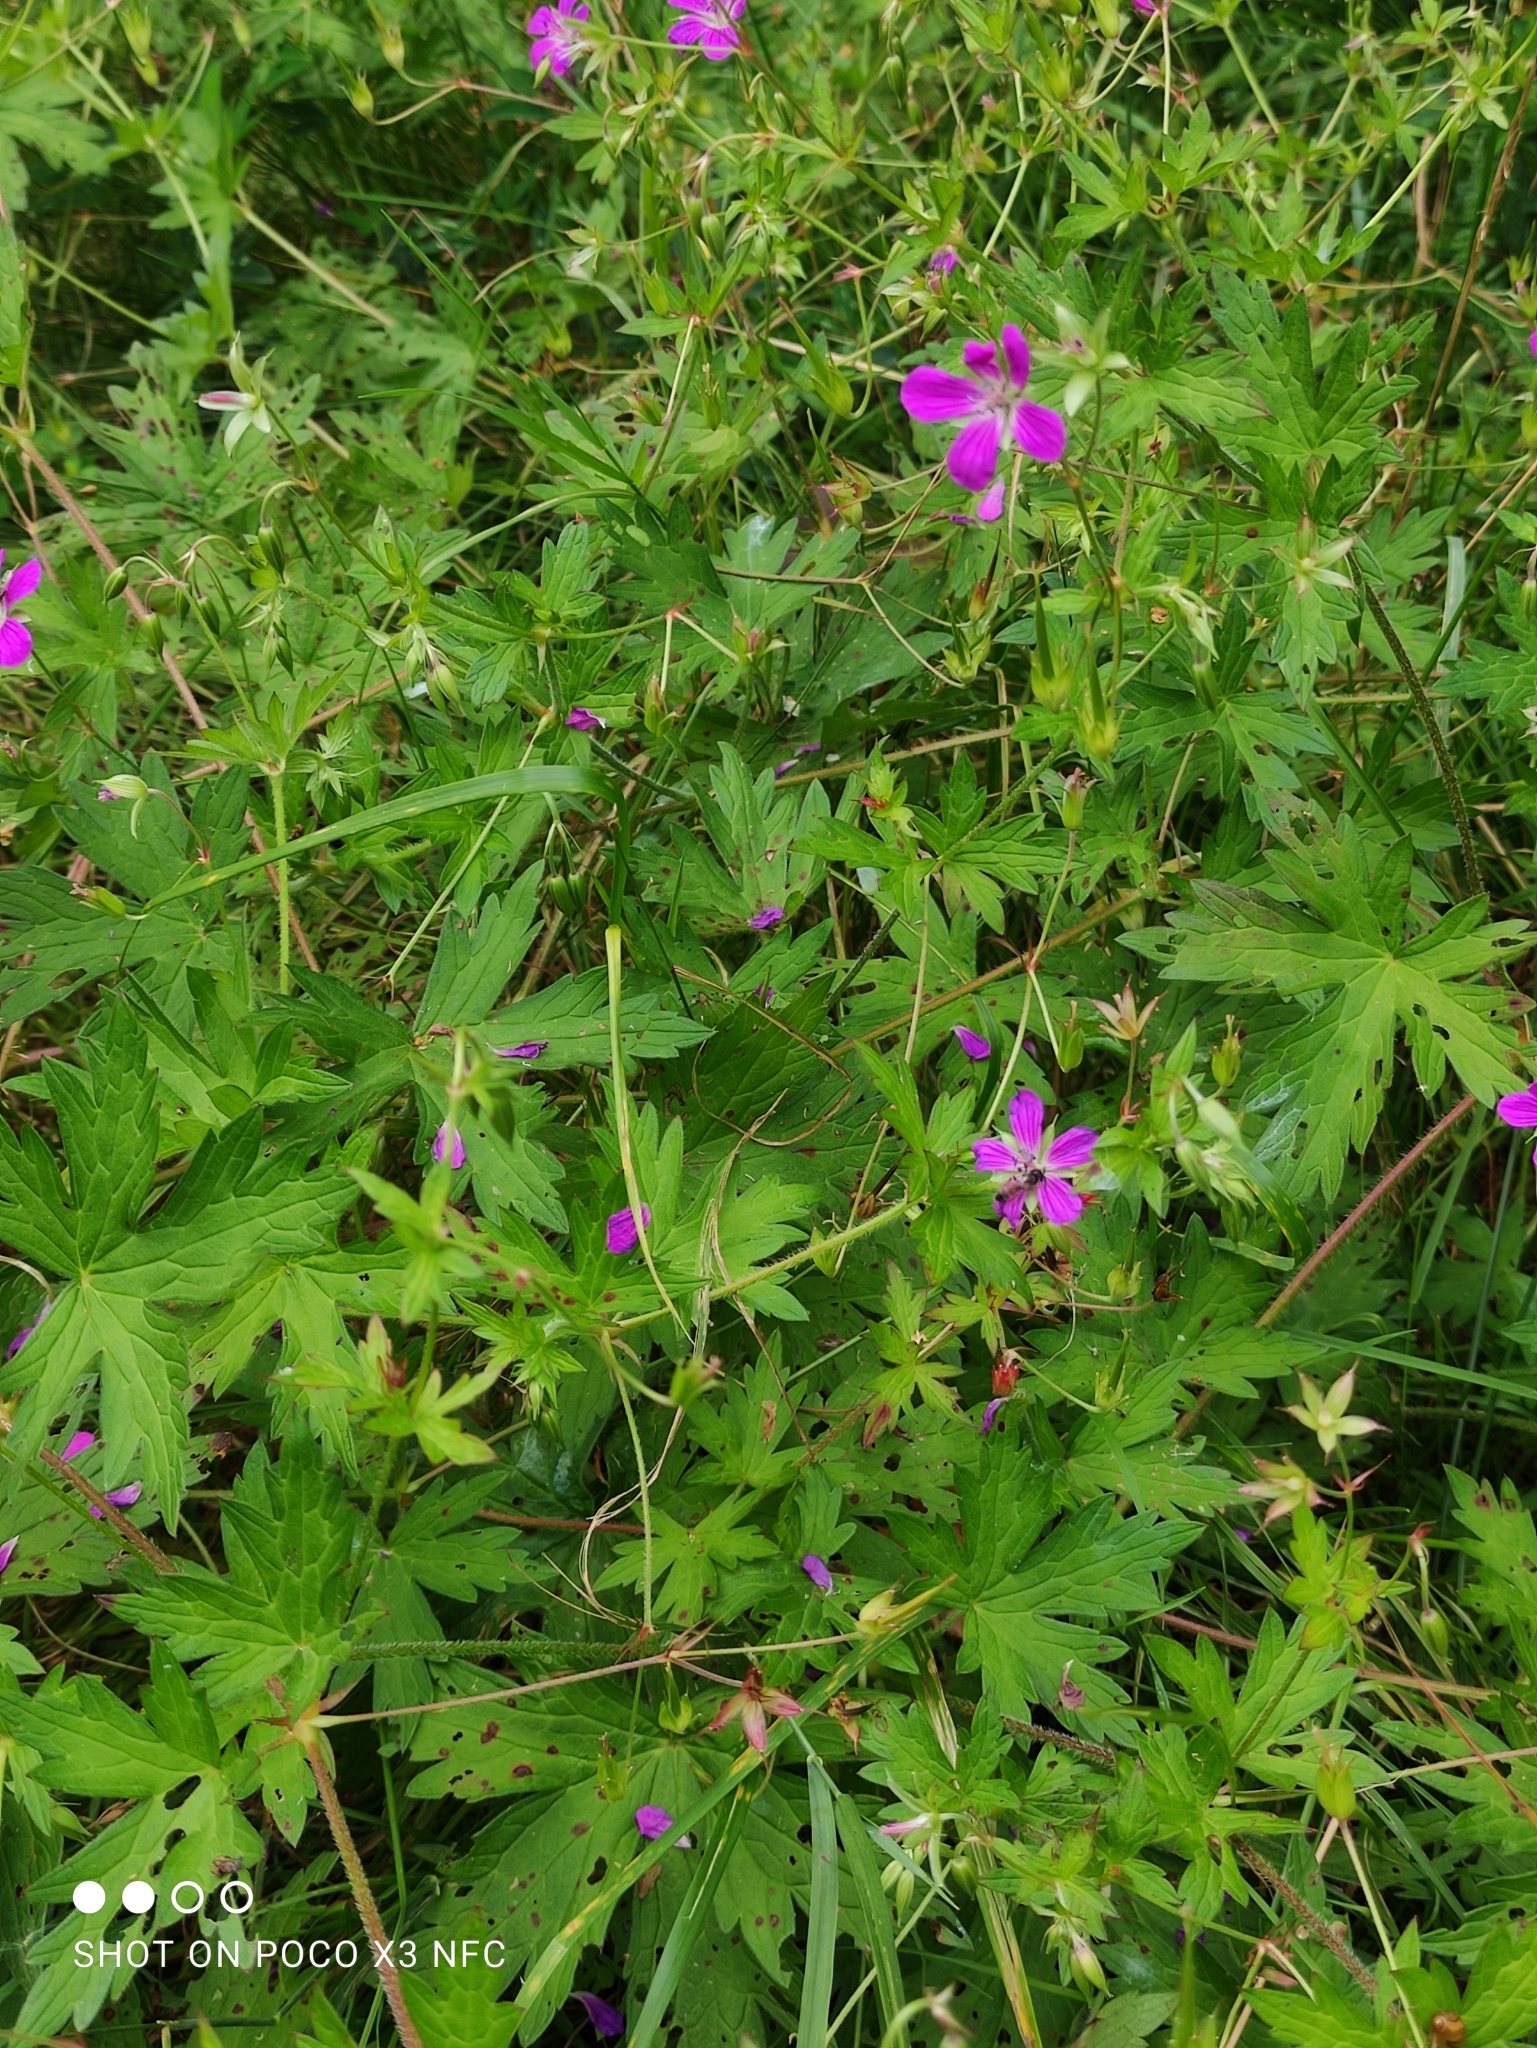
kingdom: Plantae
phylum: Tracheophyta
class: Magnoliopsida
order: Geraniales
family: Geraniaceae
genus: Geranium
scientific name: Geranium palustre
